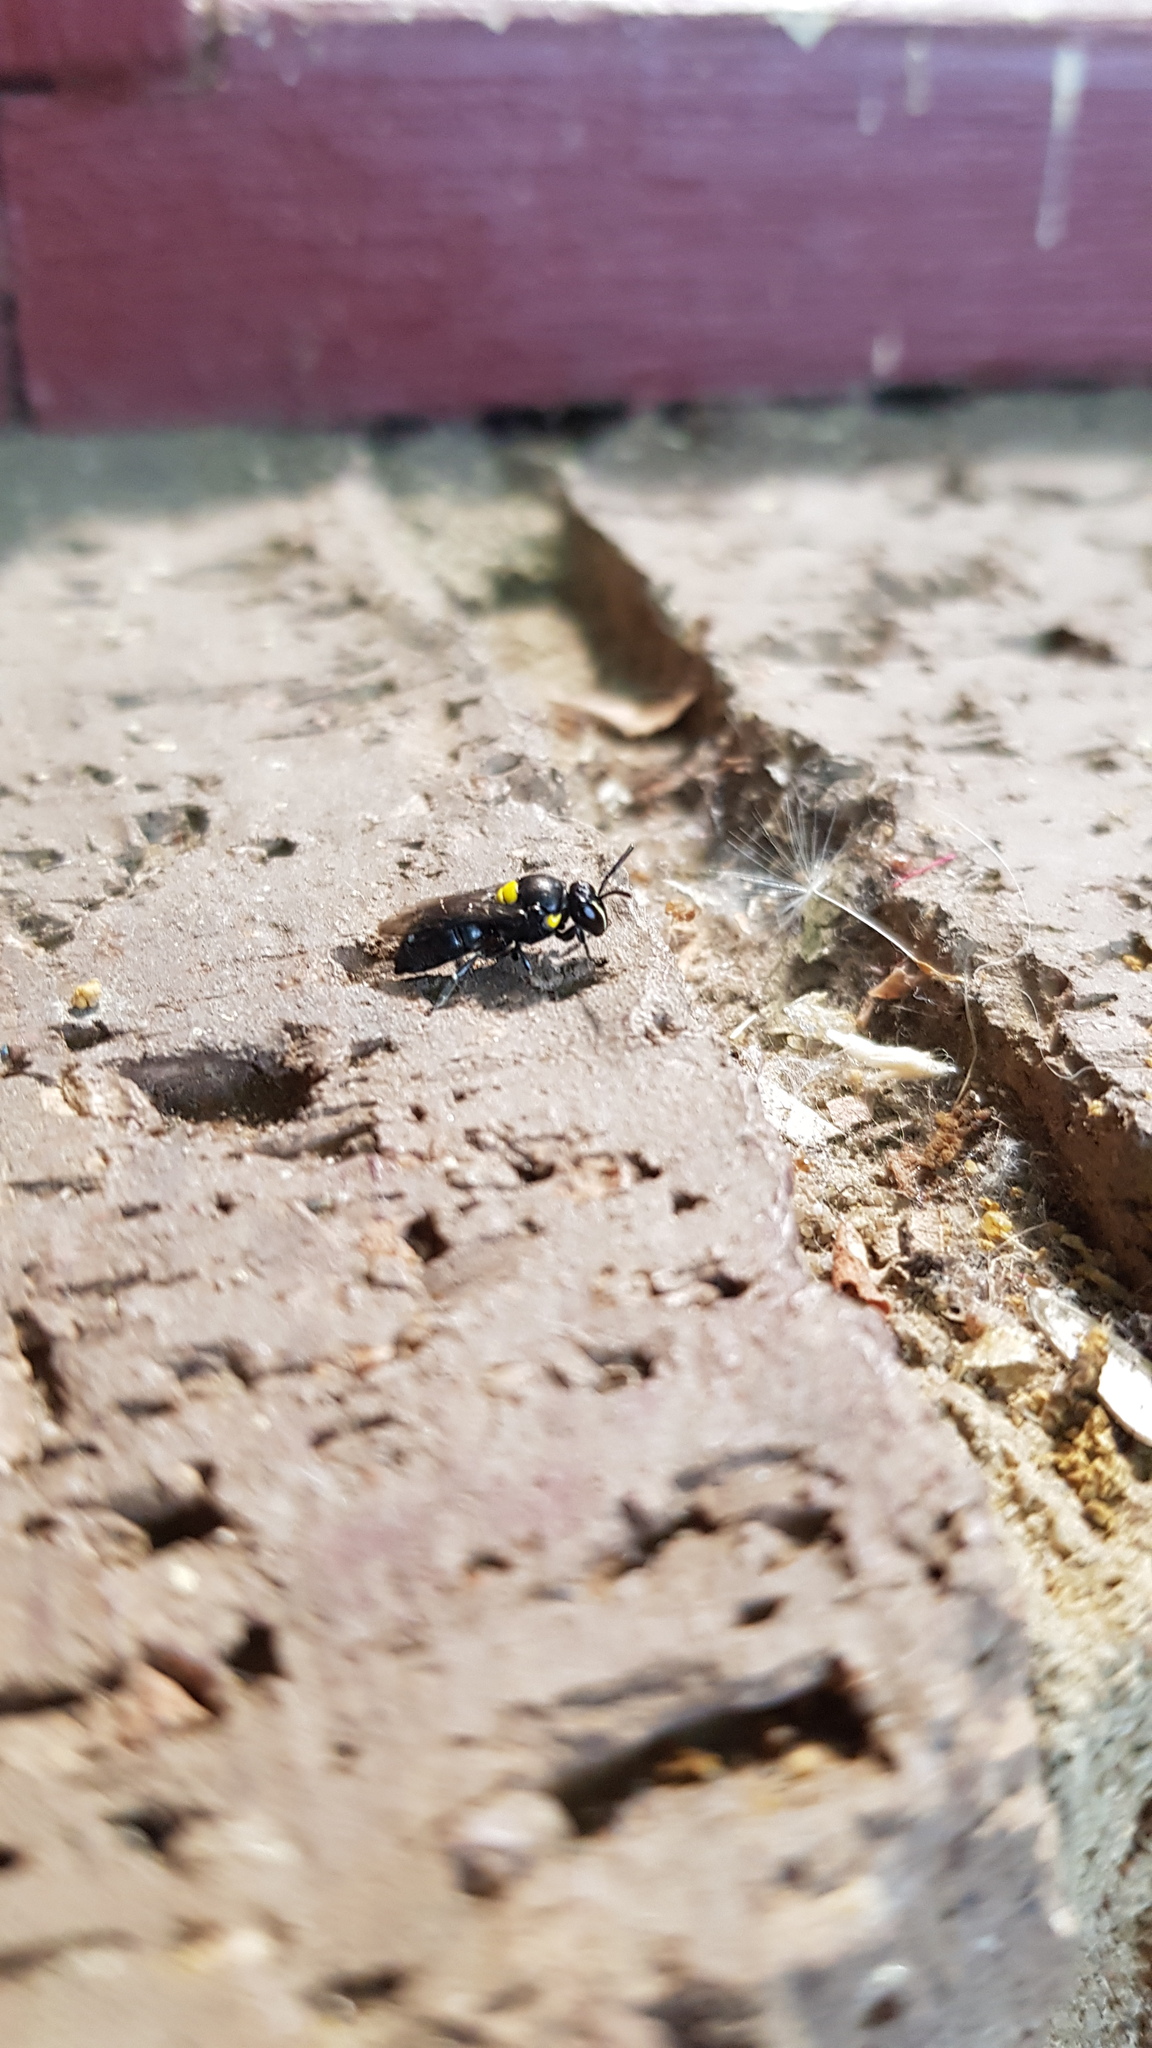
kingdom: Animalia
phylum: Arthropoda
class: Insecta
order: Hymenoptera
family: Colletidae
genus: Hylaeus
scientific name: Hylaeus nubilosus
